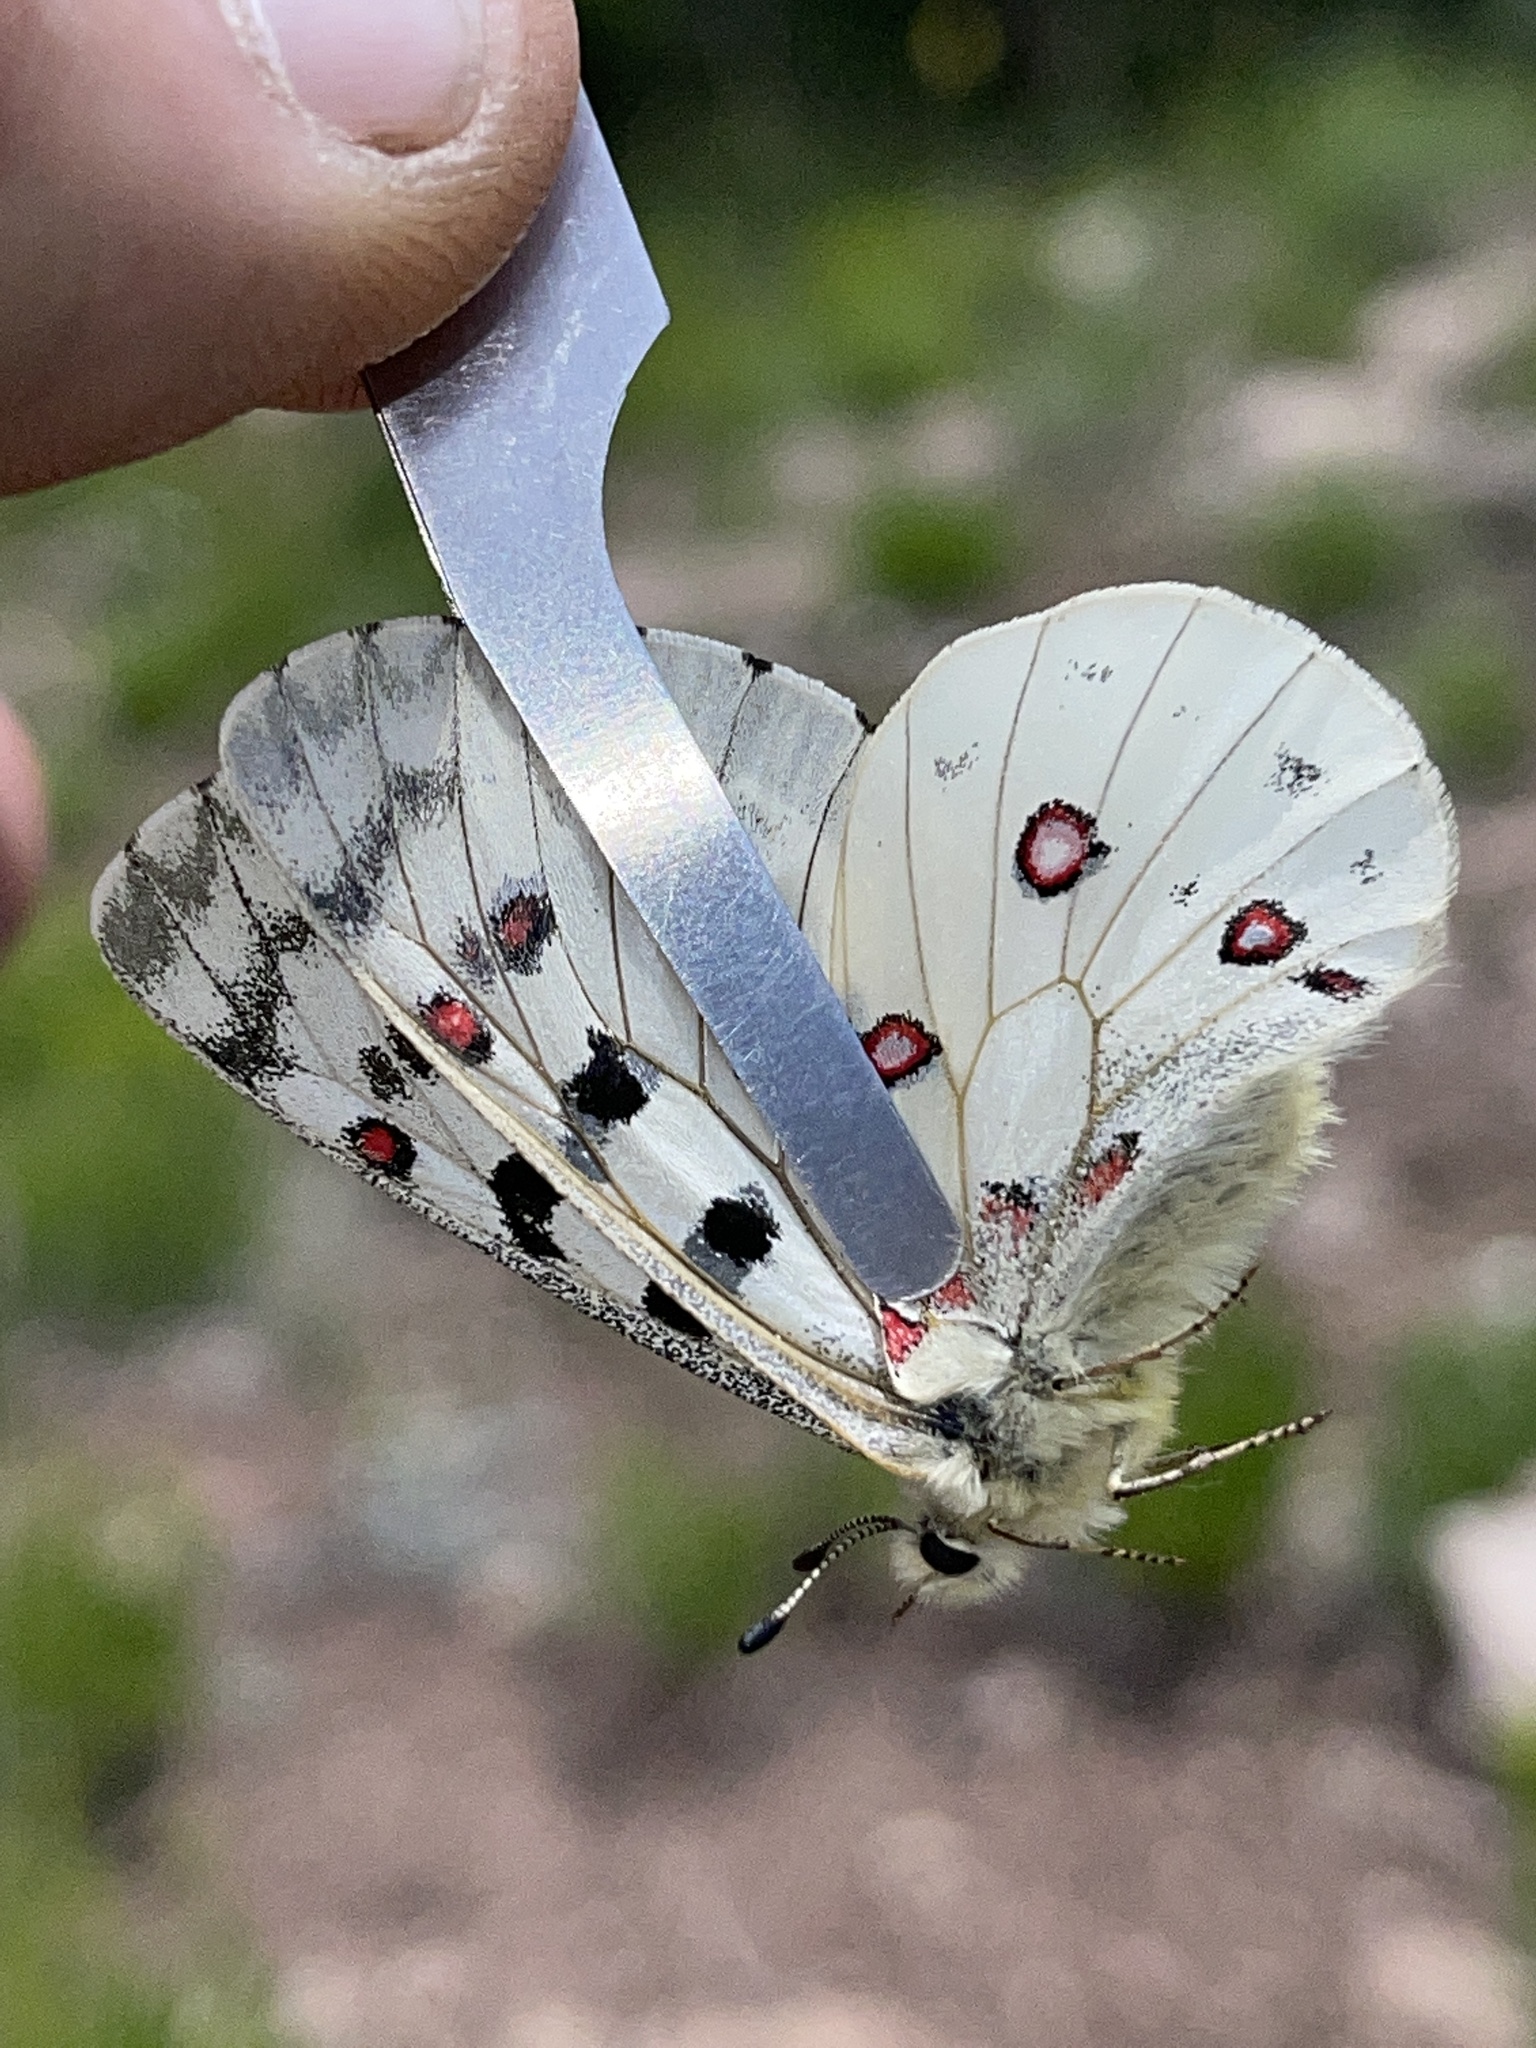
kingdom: Animalia
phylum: Arthropoda
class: Insecta
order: Lepidoptera
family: Papilionidae
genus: Parnassius
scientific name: Parnassius smintheus
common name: Mountain parnassian
